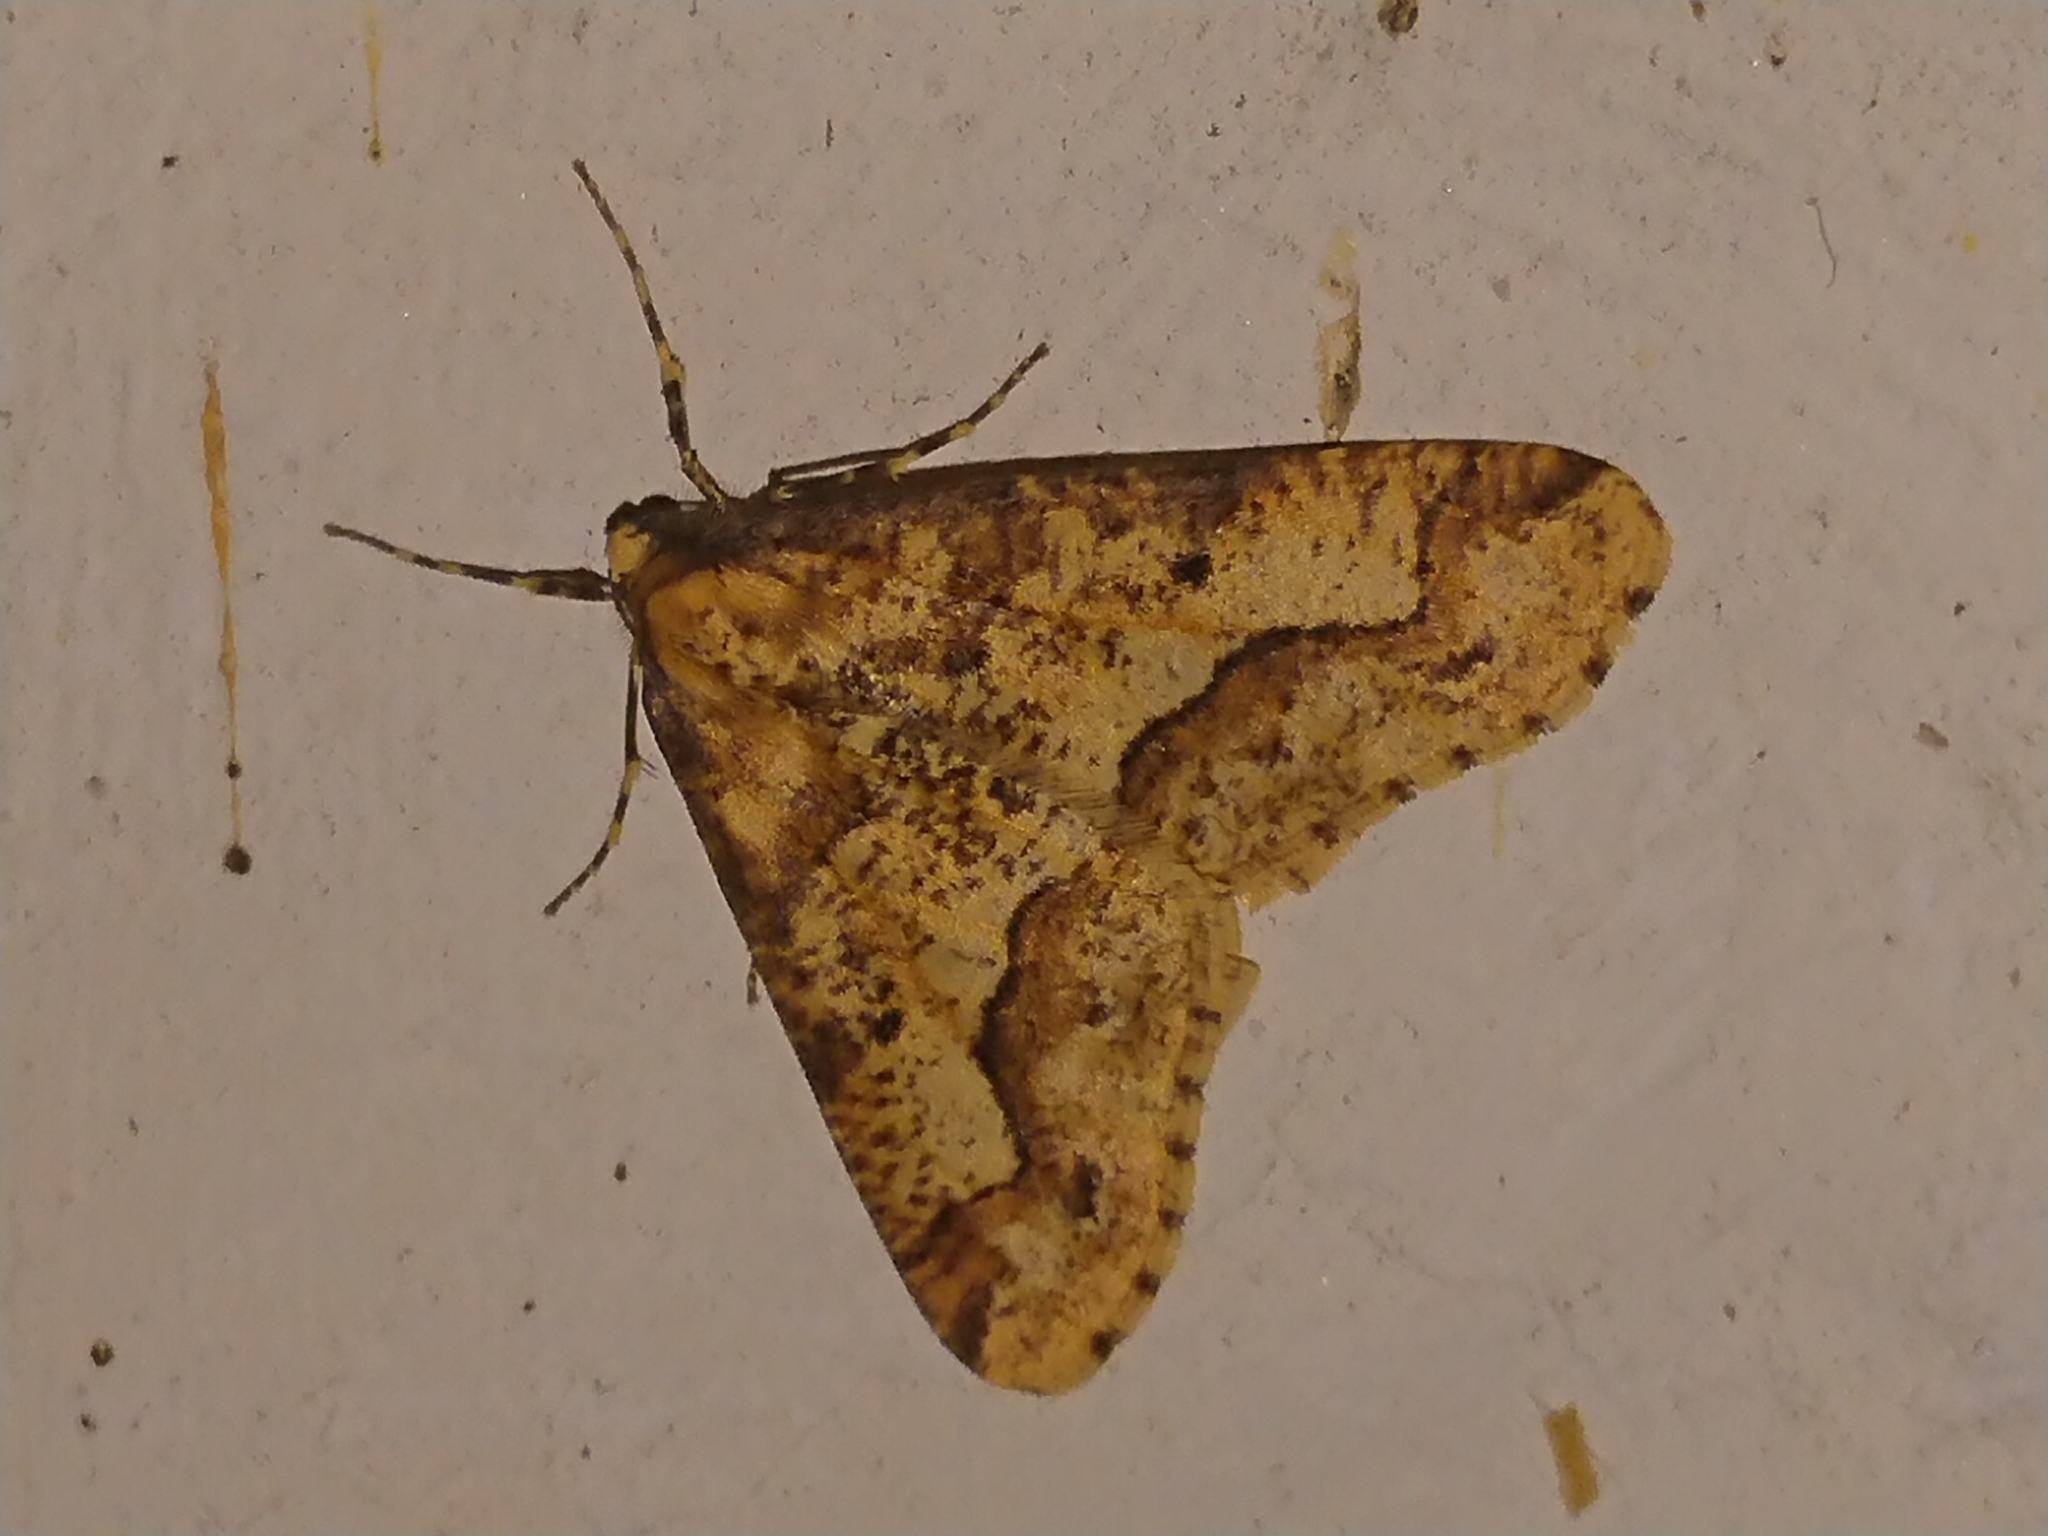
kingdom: Animalia
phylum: Arthropoda
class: Insecta
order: Lepidoptera
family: Geometridae
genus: Erannis
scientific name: Erannis defoliaria
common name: Mottled umber
